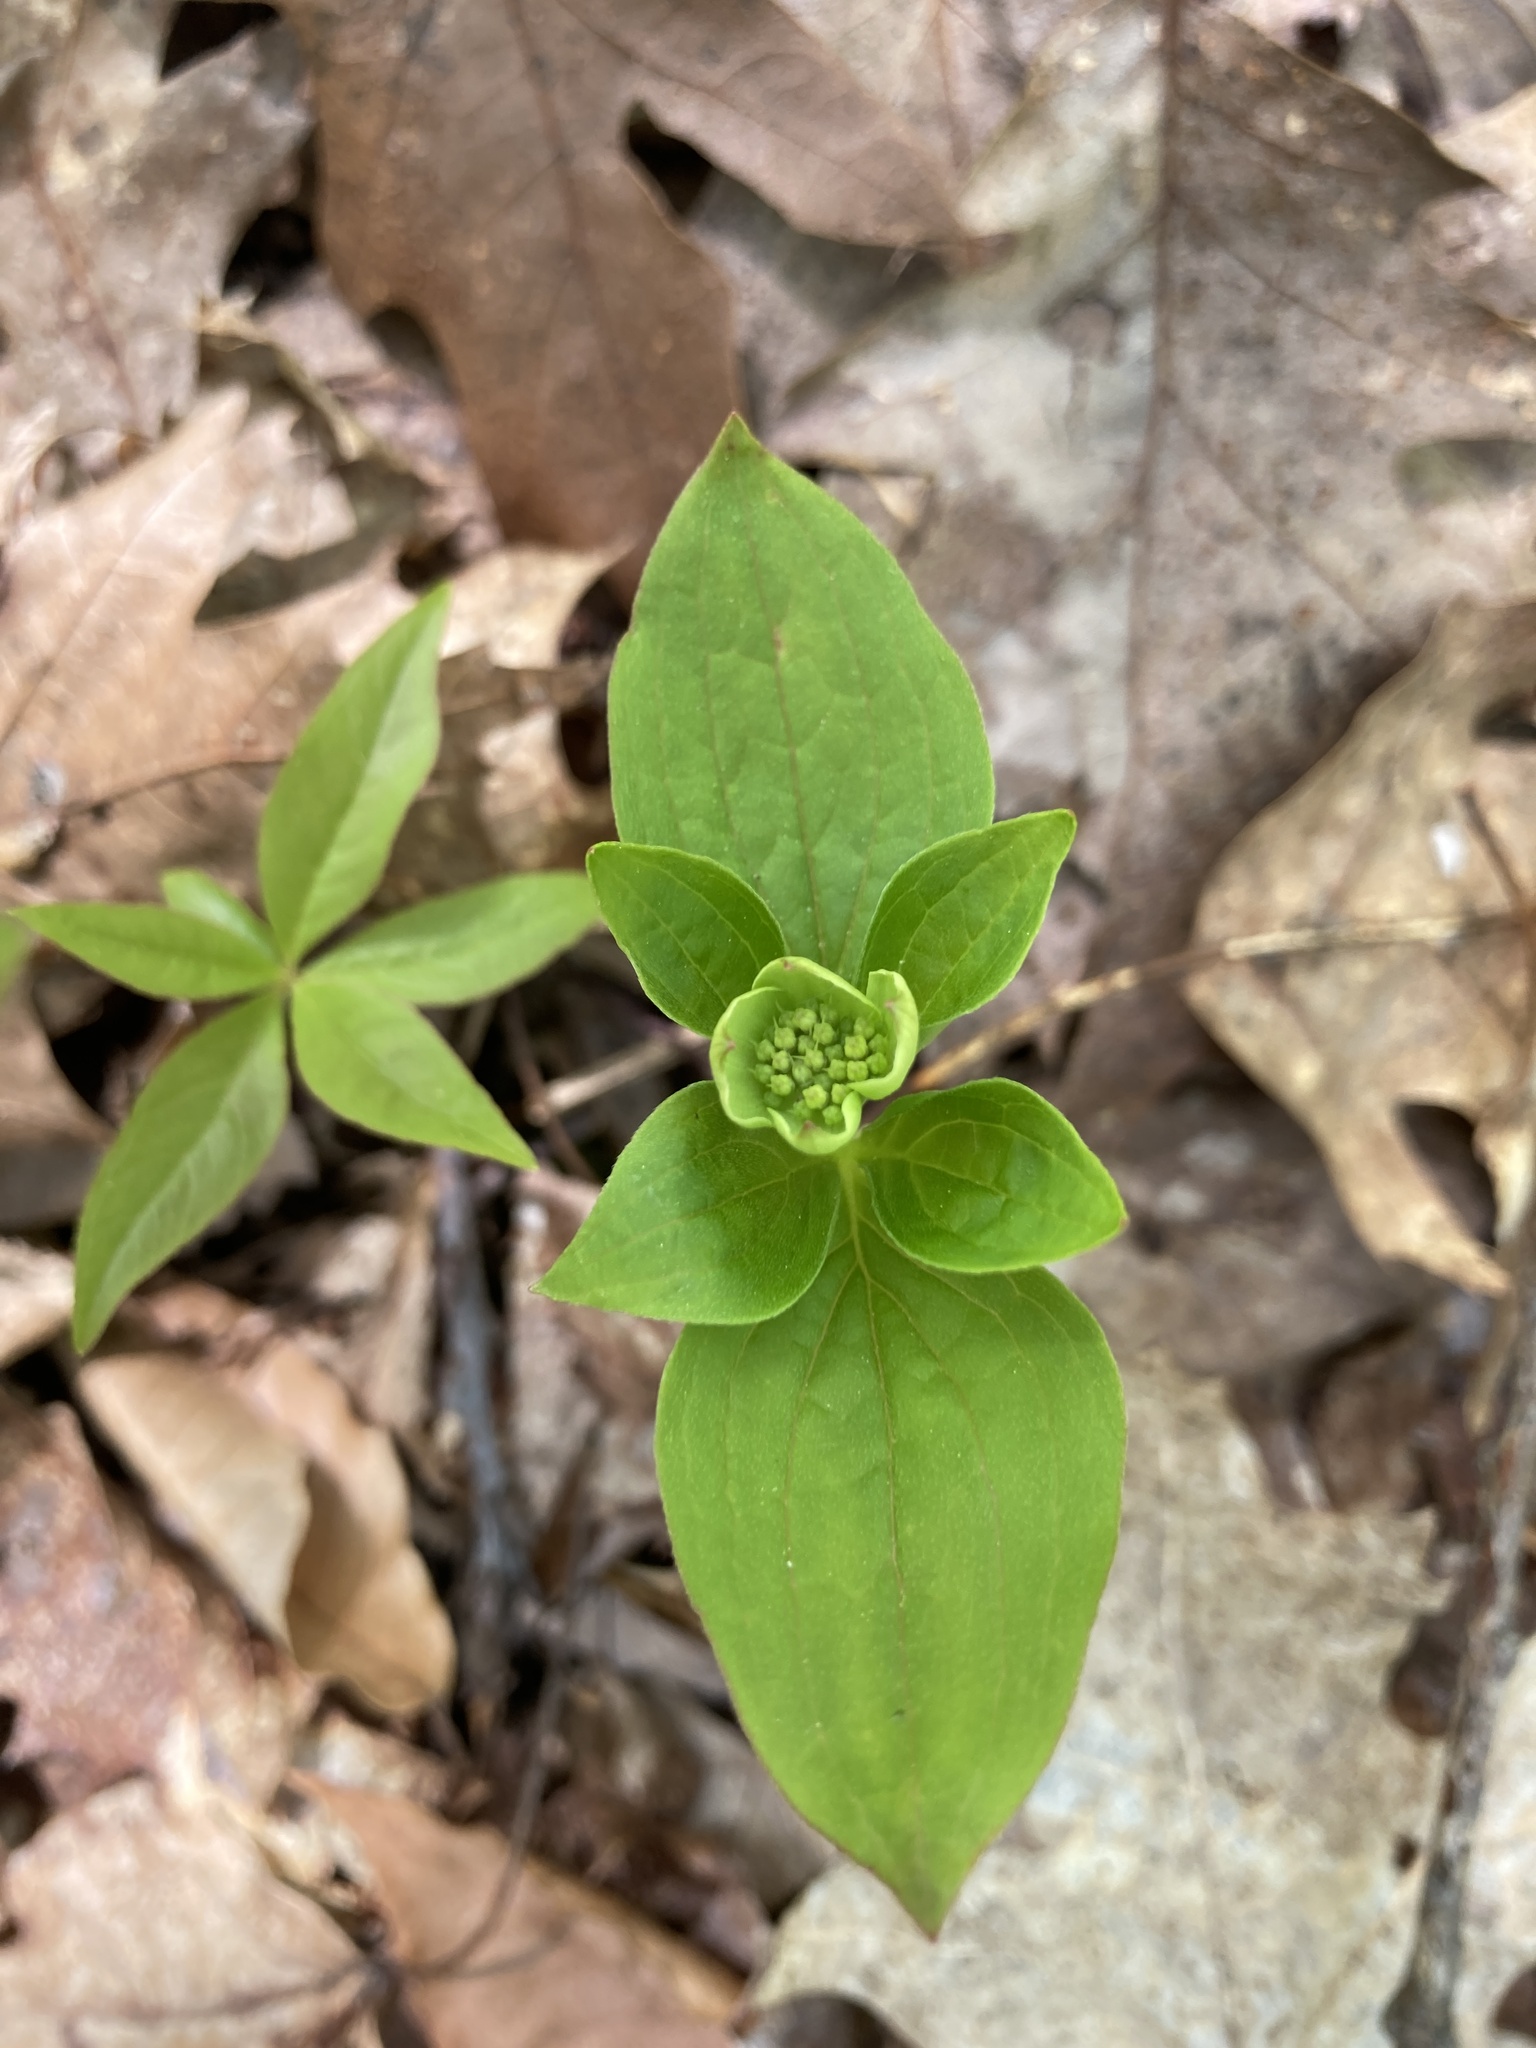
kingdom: Plantae
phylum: Tracheophyta
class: Magnoliopsida
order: Cornales
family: Cornaceae
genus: Cornus
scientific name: Cornus canadensis
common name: Creeping dogwood
